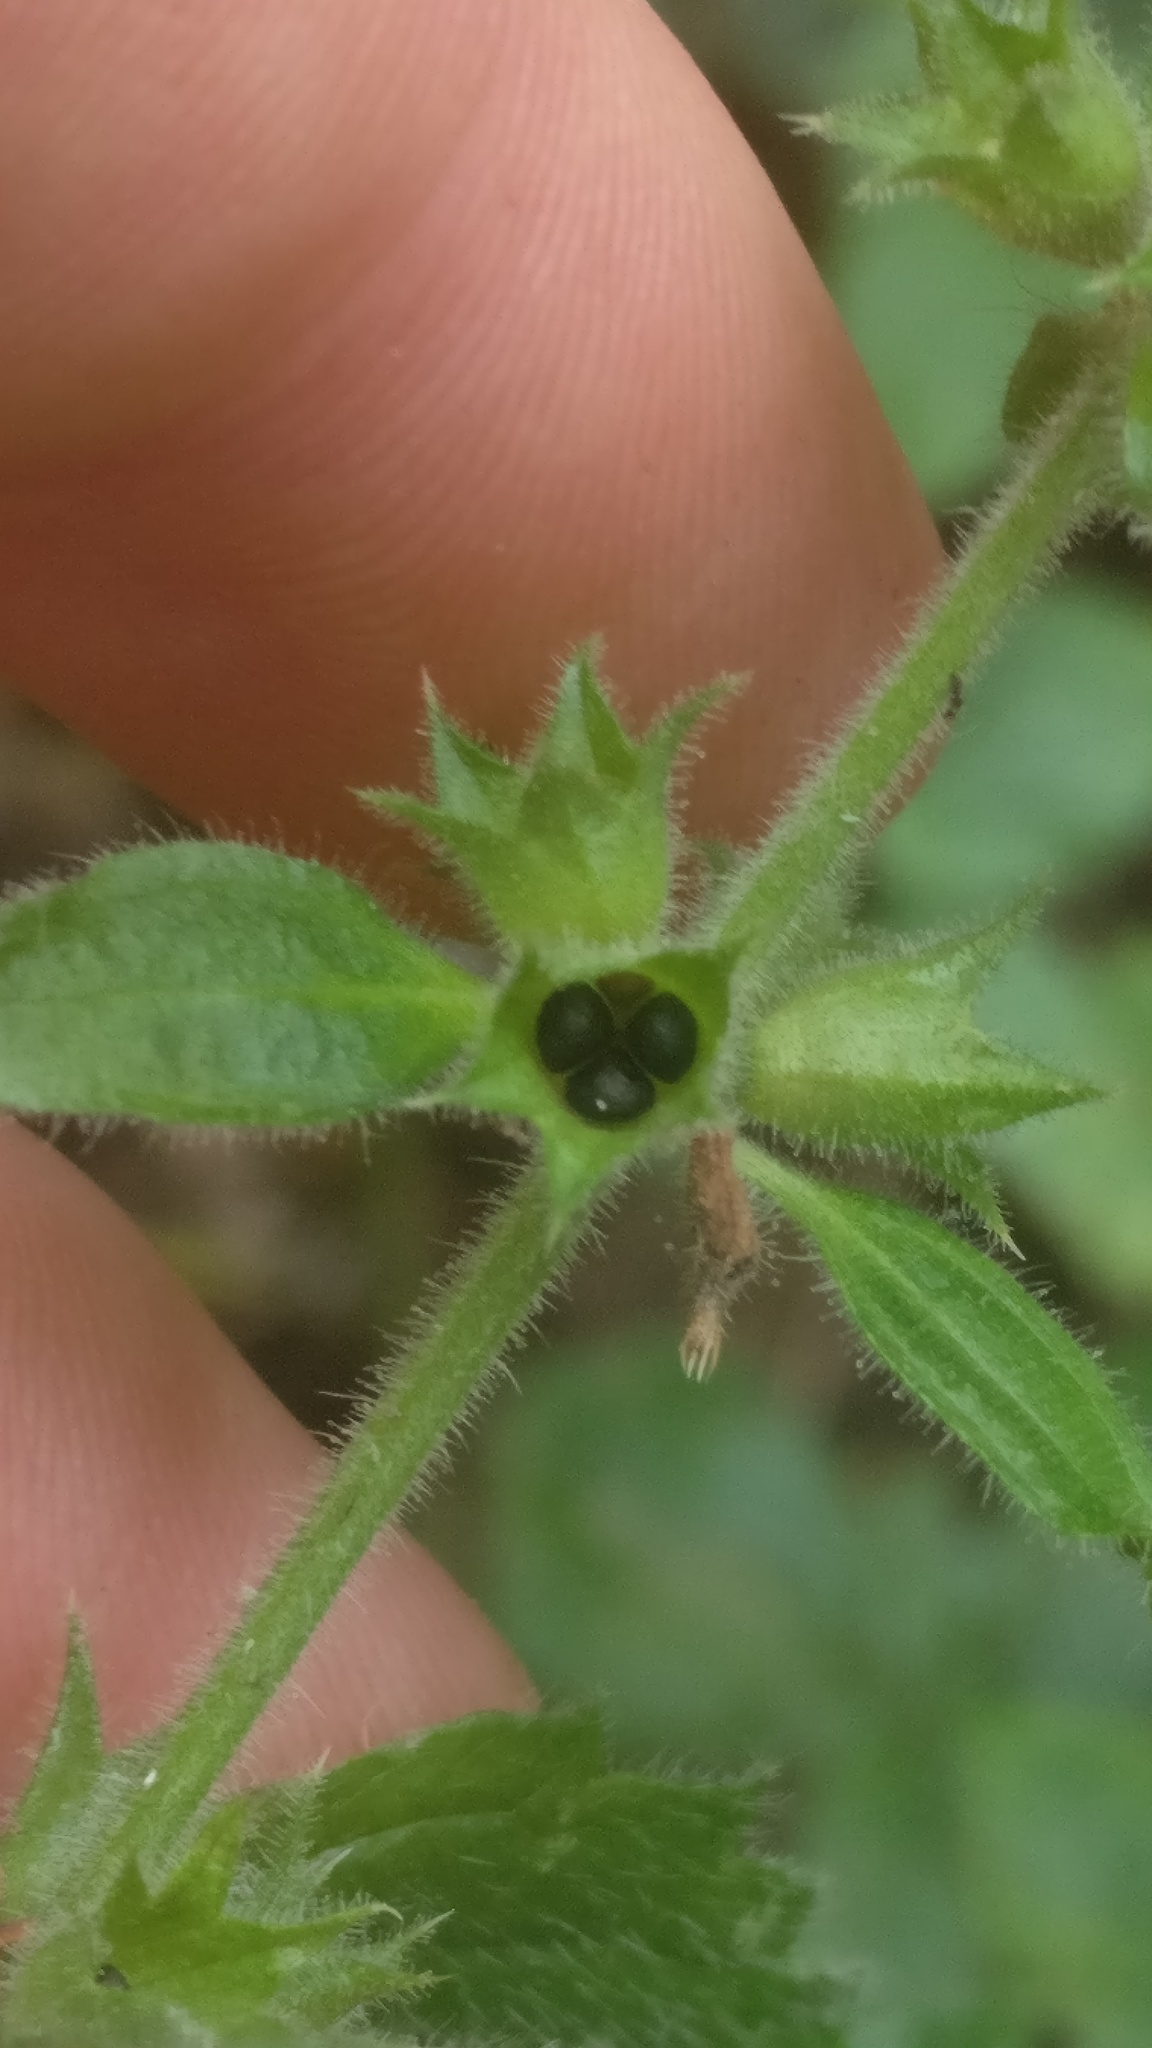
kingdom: Plantae
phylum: Tracheophyta
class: Magnoliopsida
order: Lamiales
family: Lamiaceae
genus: Stachys
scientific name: Stachys sylvatica
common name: Hedge woundwort
